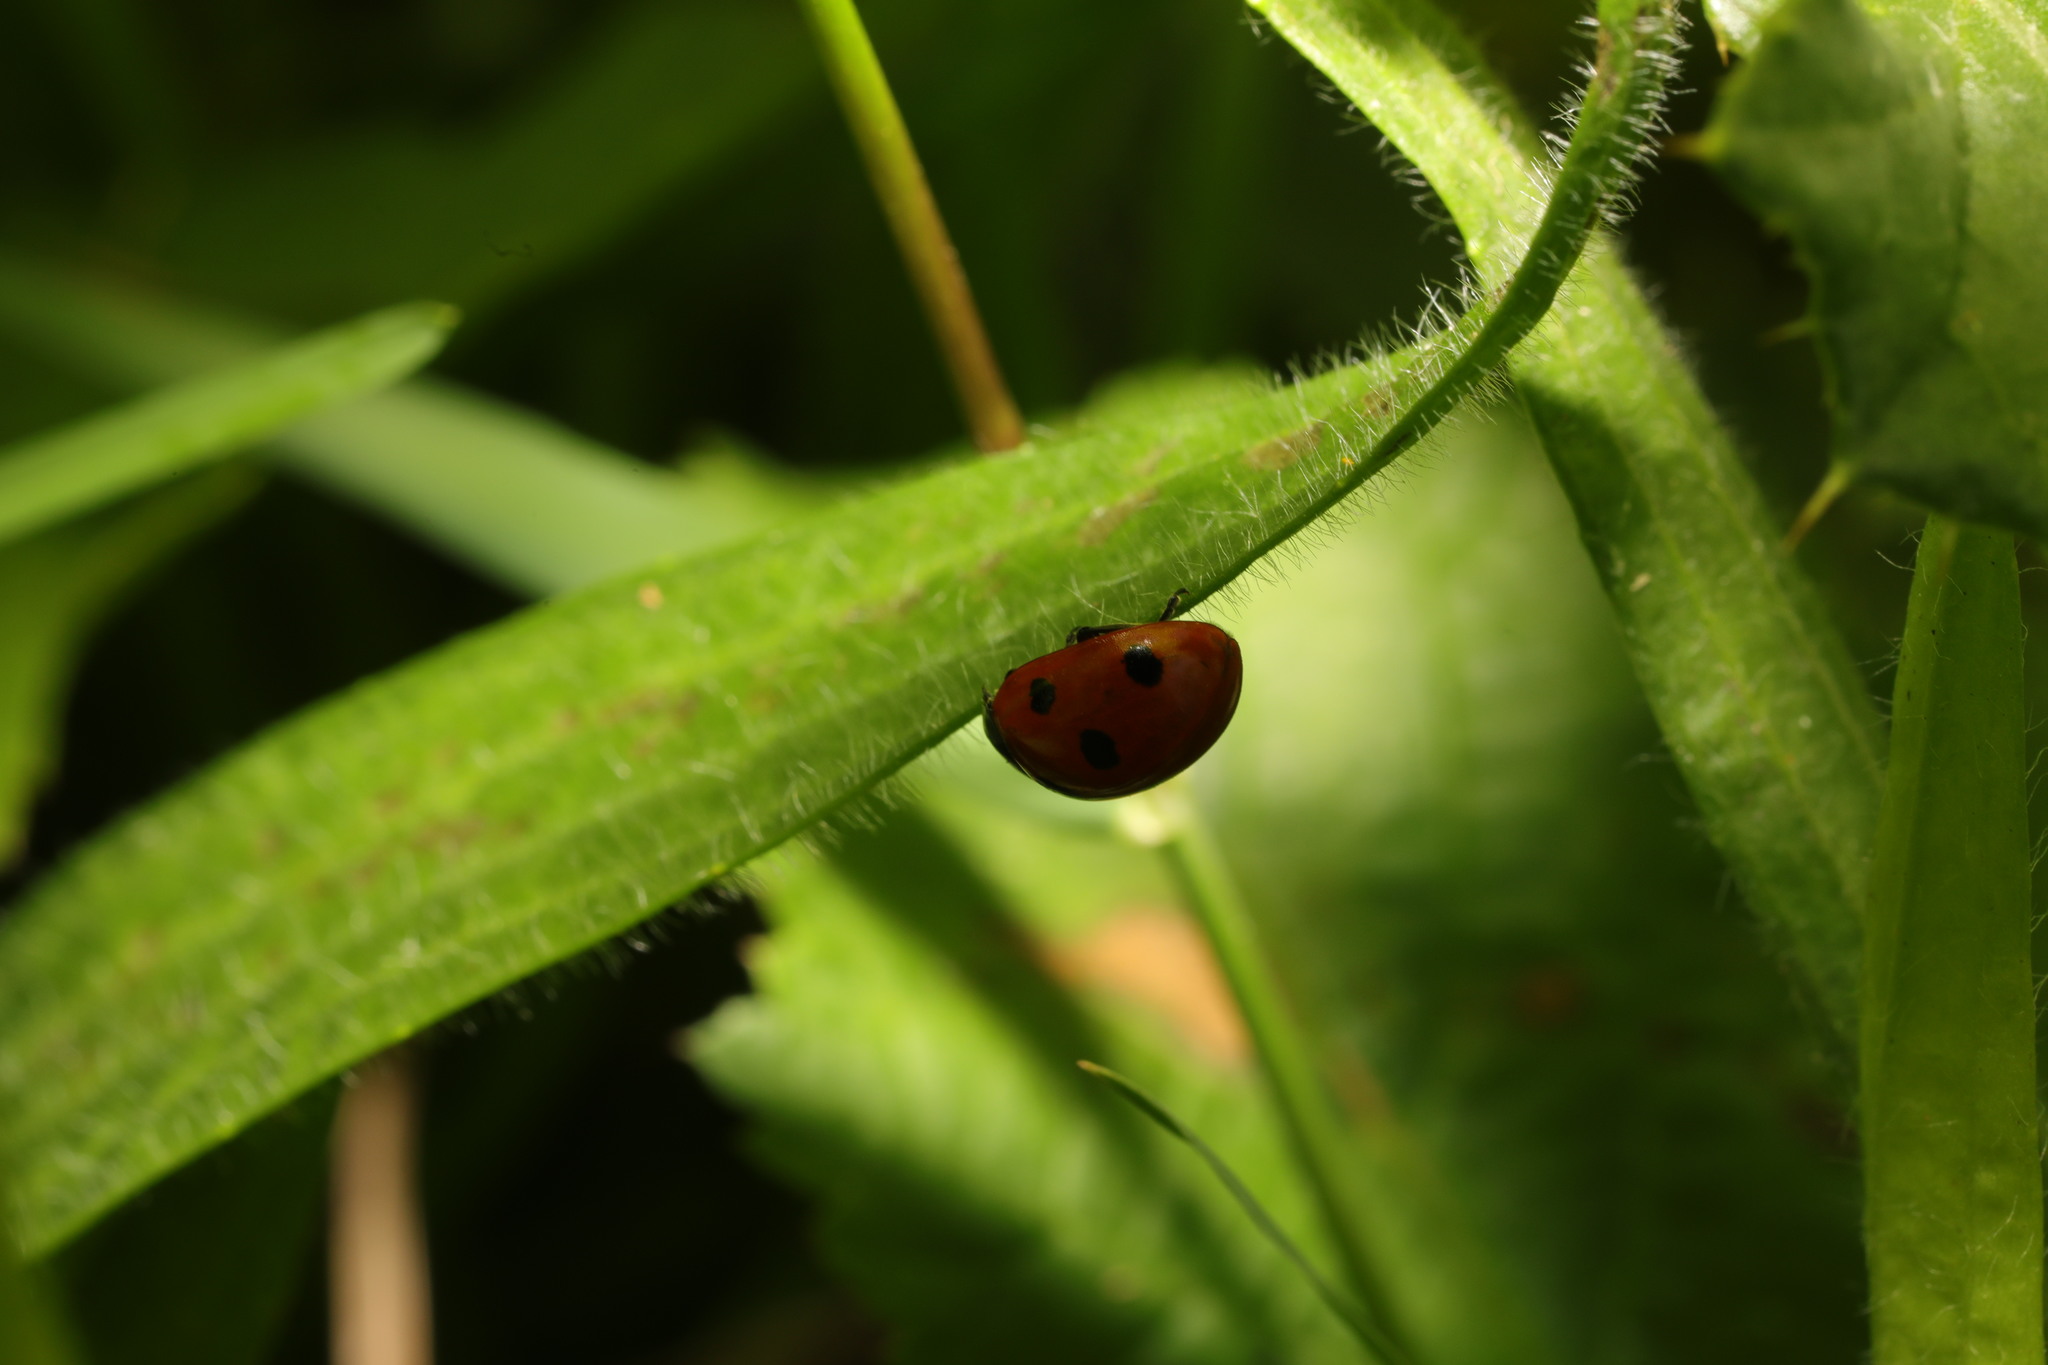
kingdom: Animalia
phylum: Arthropoda
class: Insecta
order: Coleoptera
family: Coccinellidae
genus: Coccinella
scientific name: Coccinella septempunctata
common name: Sevenspotted lady beetle
